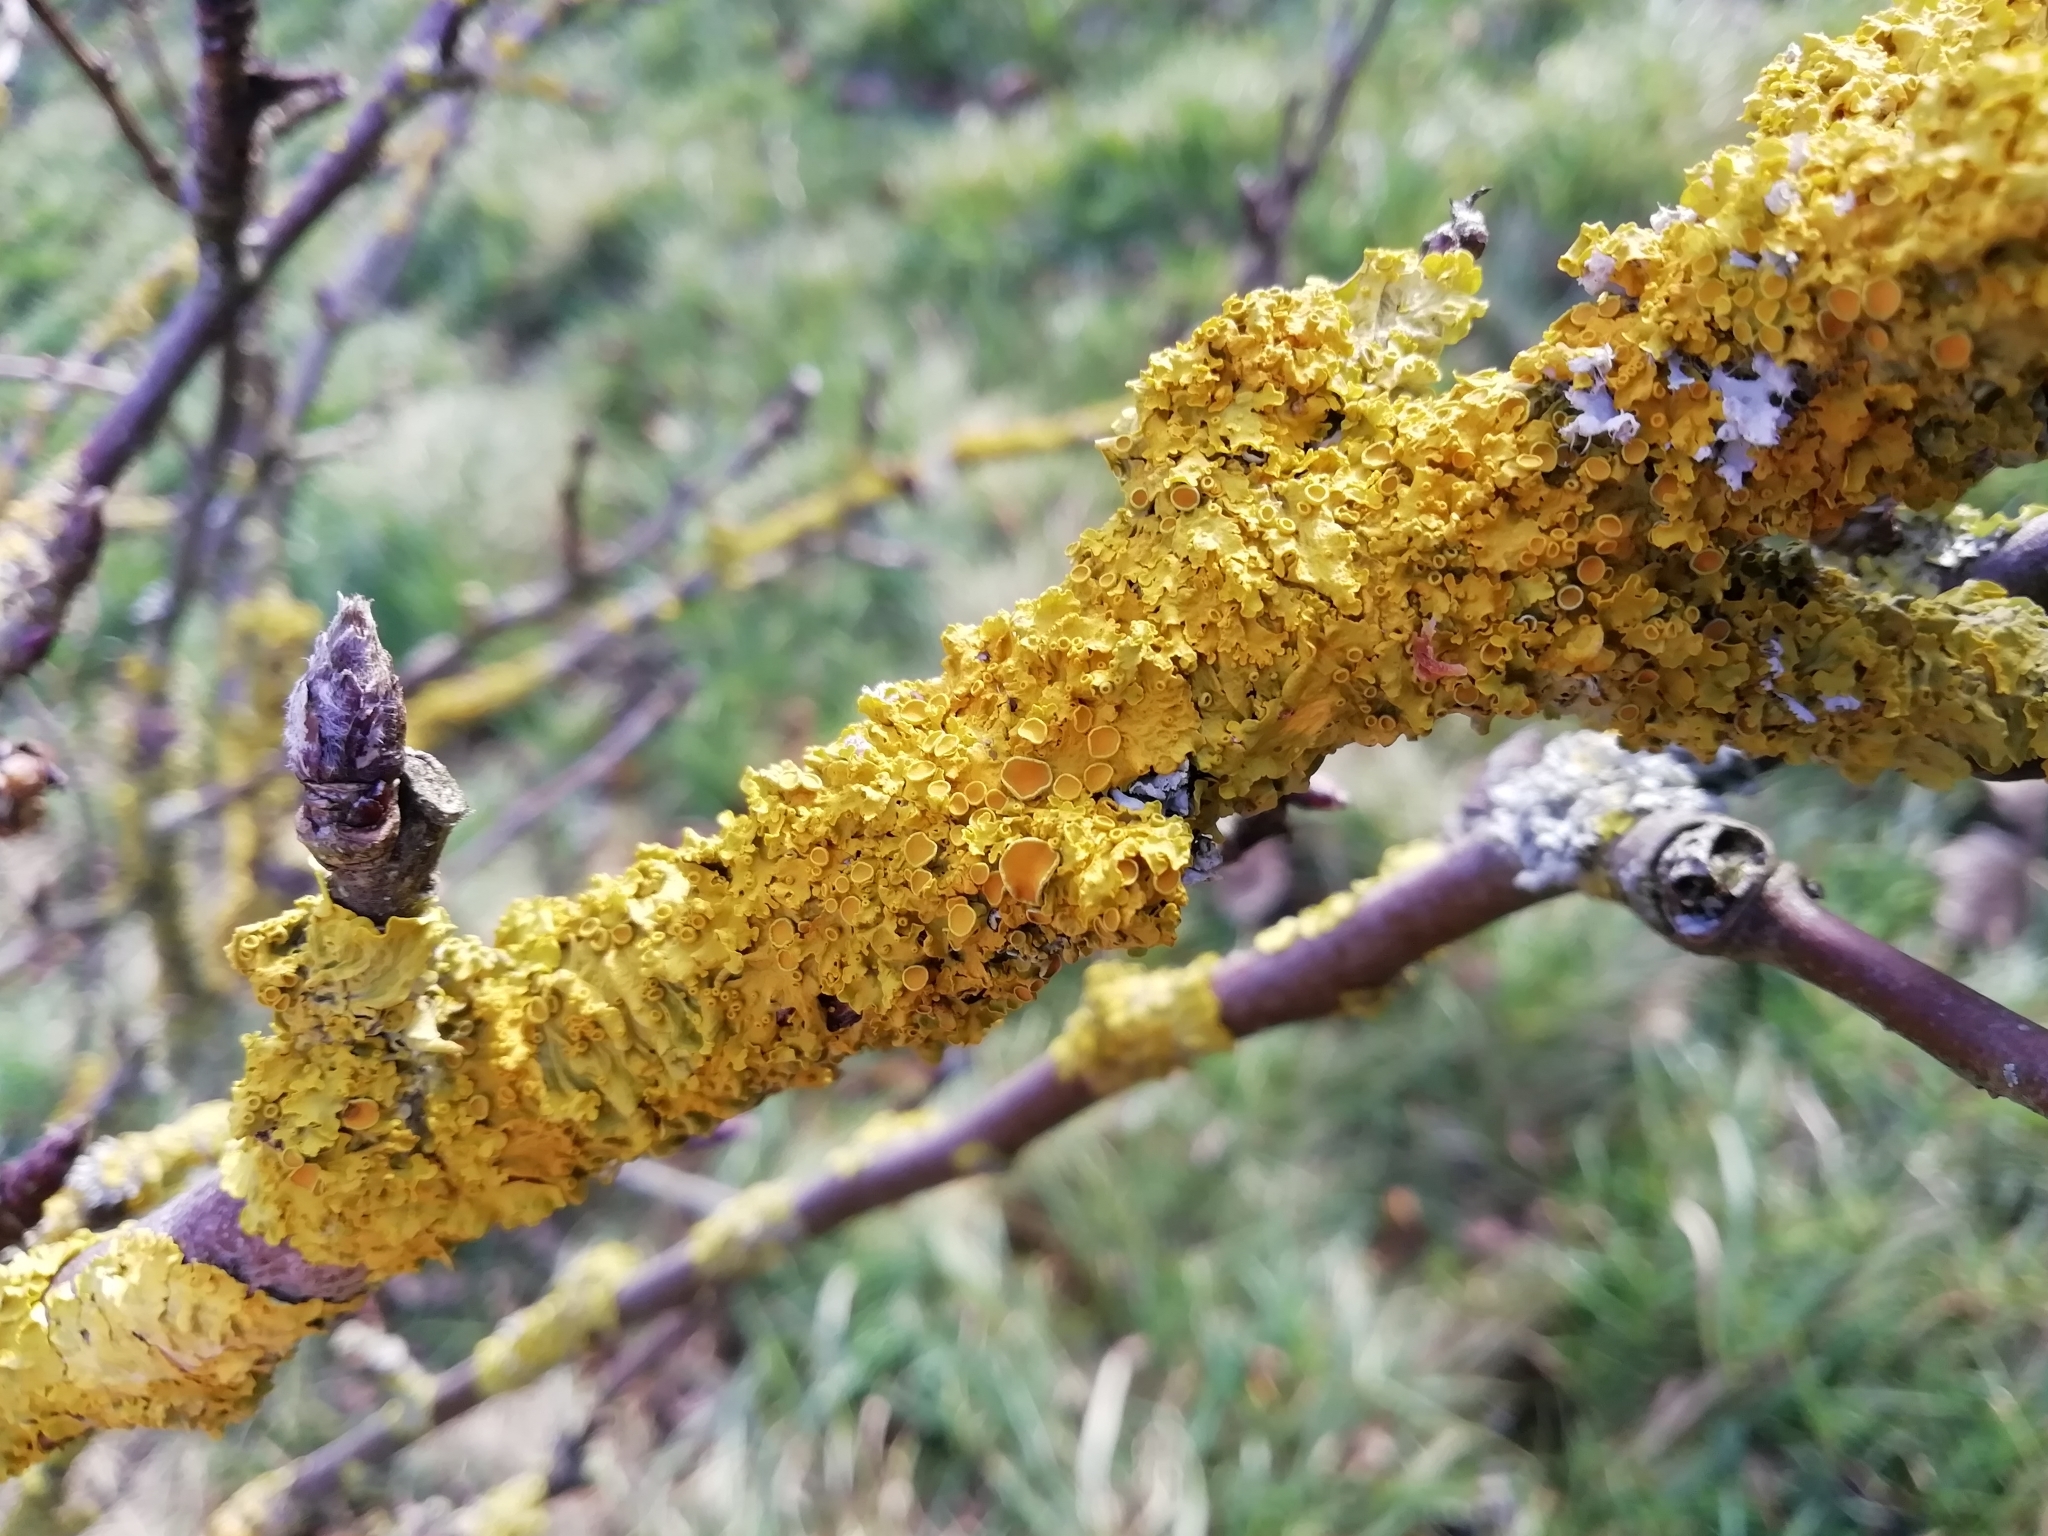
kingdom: Fungi
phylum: Ascomycota
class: Lecanoromycetes
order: Teloschistales
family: Teloschistaceae
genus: Xanthoria
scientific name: Xanthoria parietina
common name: Common orange lichen
